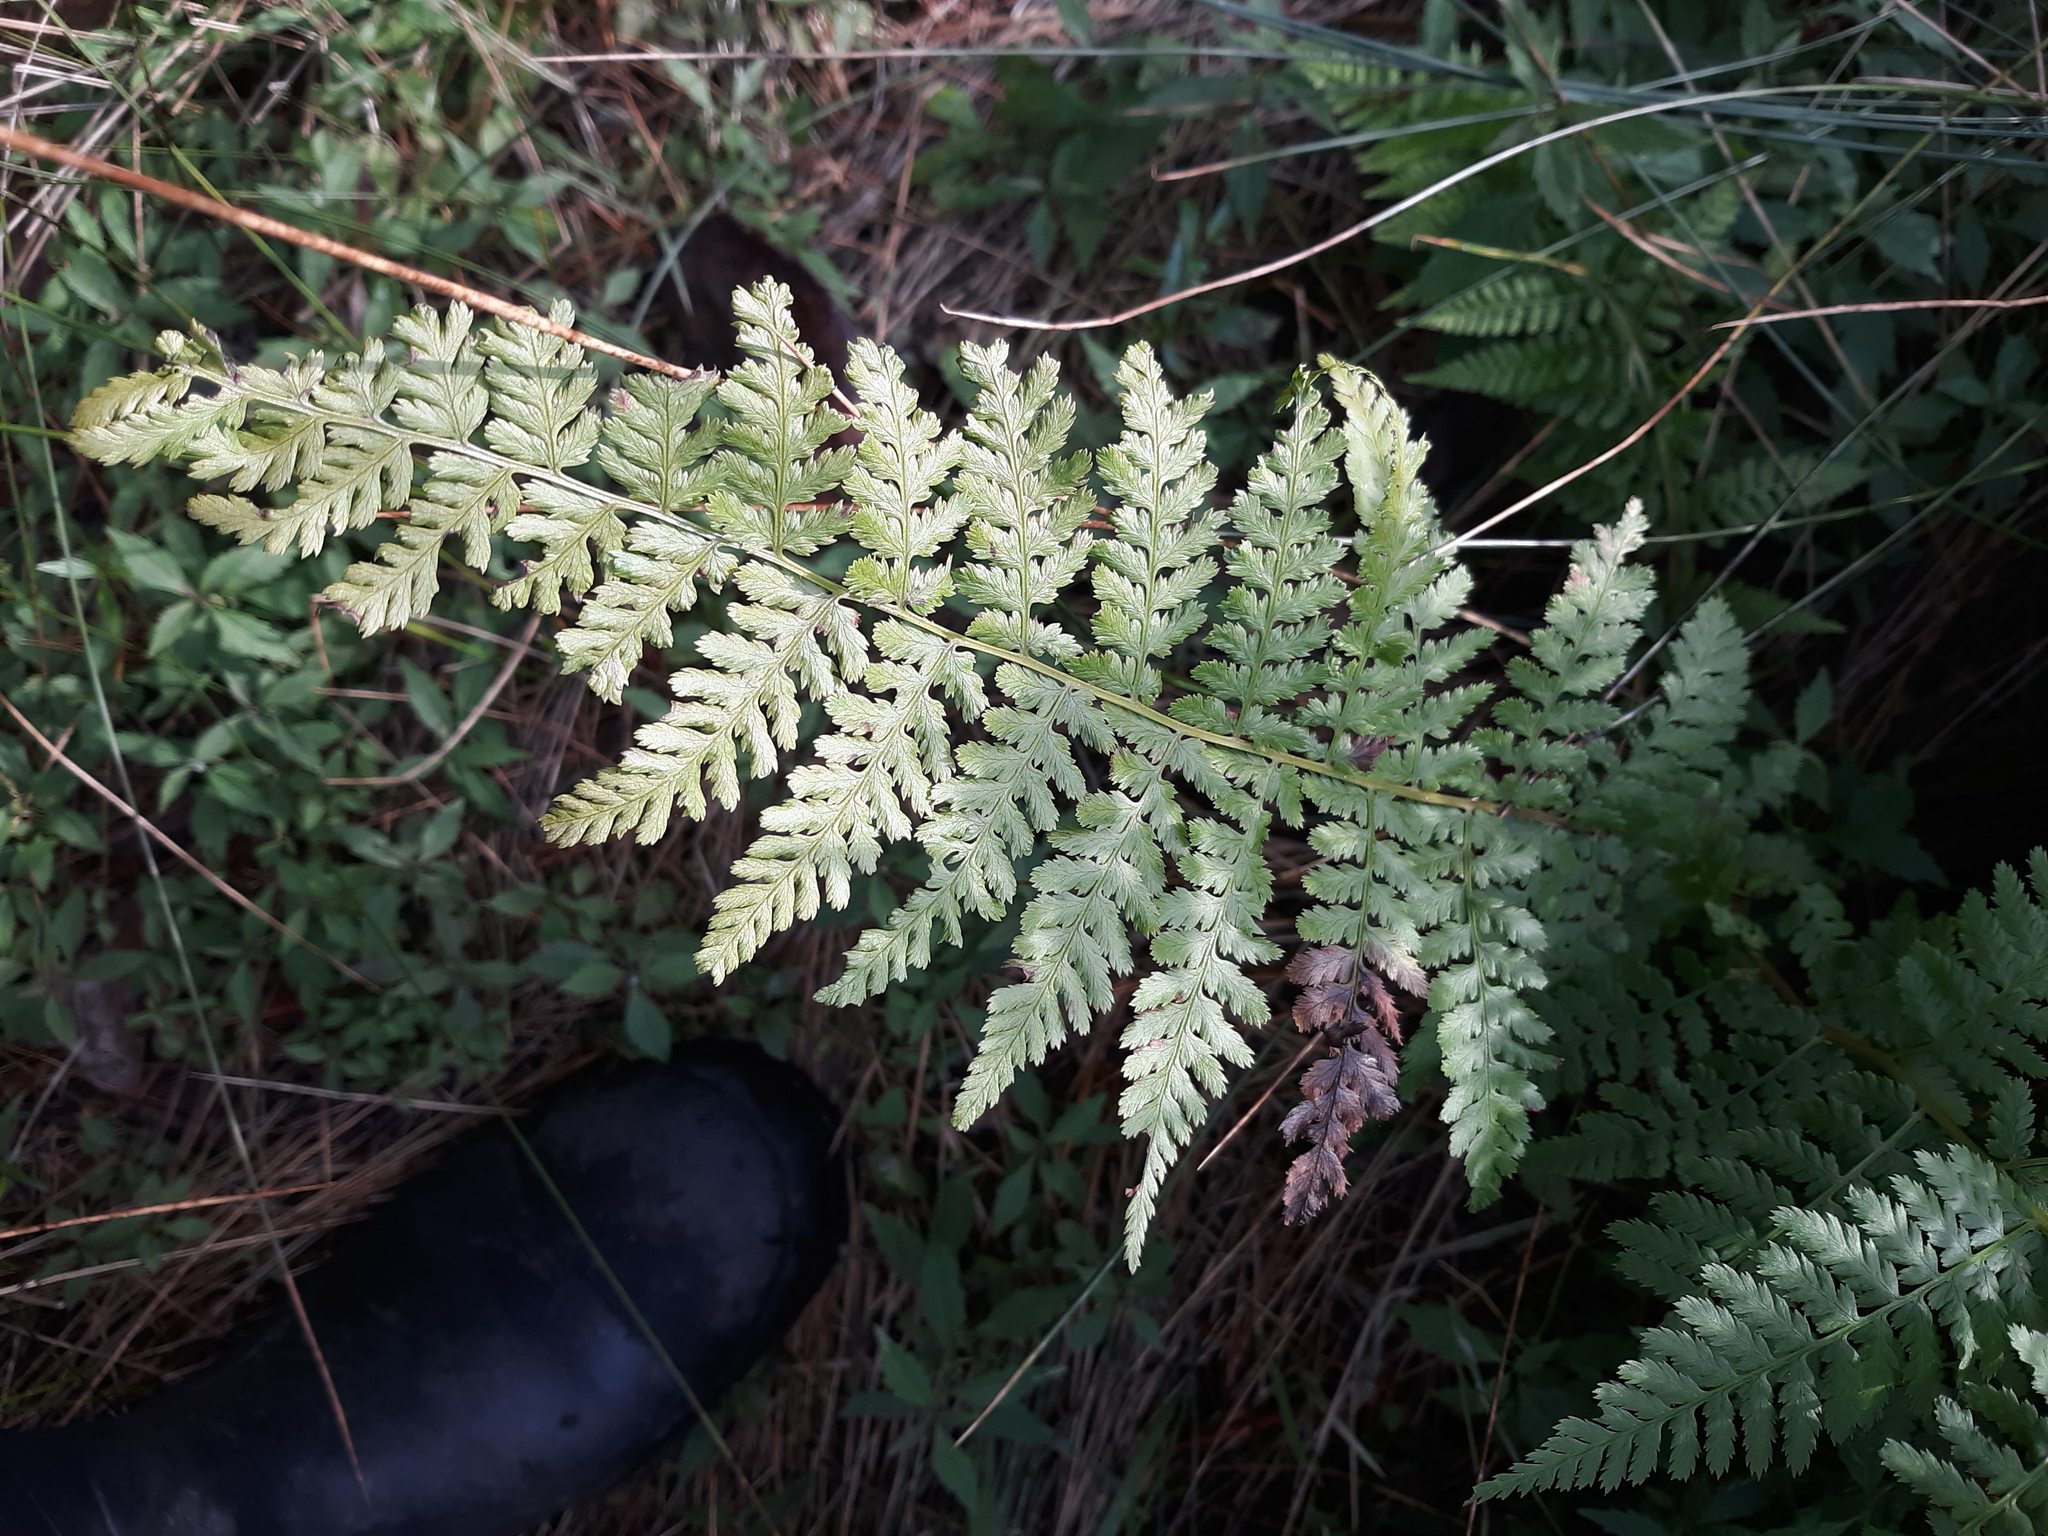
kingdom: Plantae
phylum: Tracheophyta
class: Polypodiopsida
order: Polypodiales
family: Athyriaceae
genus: Athyrium
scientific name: Athyrium filix-femina
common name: Lady fern
